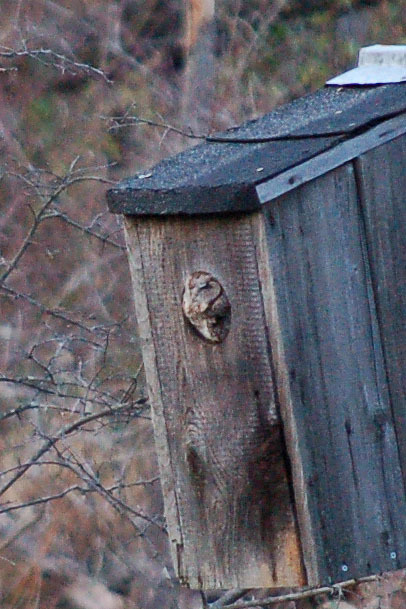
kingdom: Animalia
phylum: Chordata
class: Aves
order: Strigiformes
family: Strigidae
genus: Megascops
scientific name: Megascops asio
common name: Eastern screech-owl
